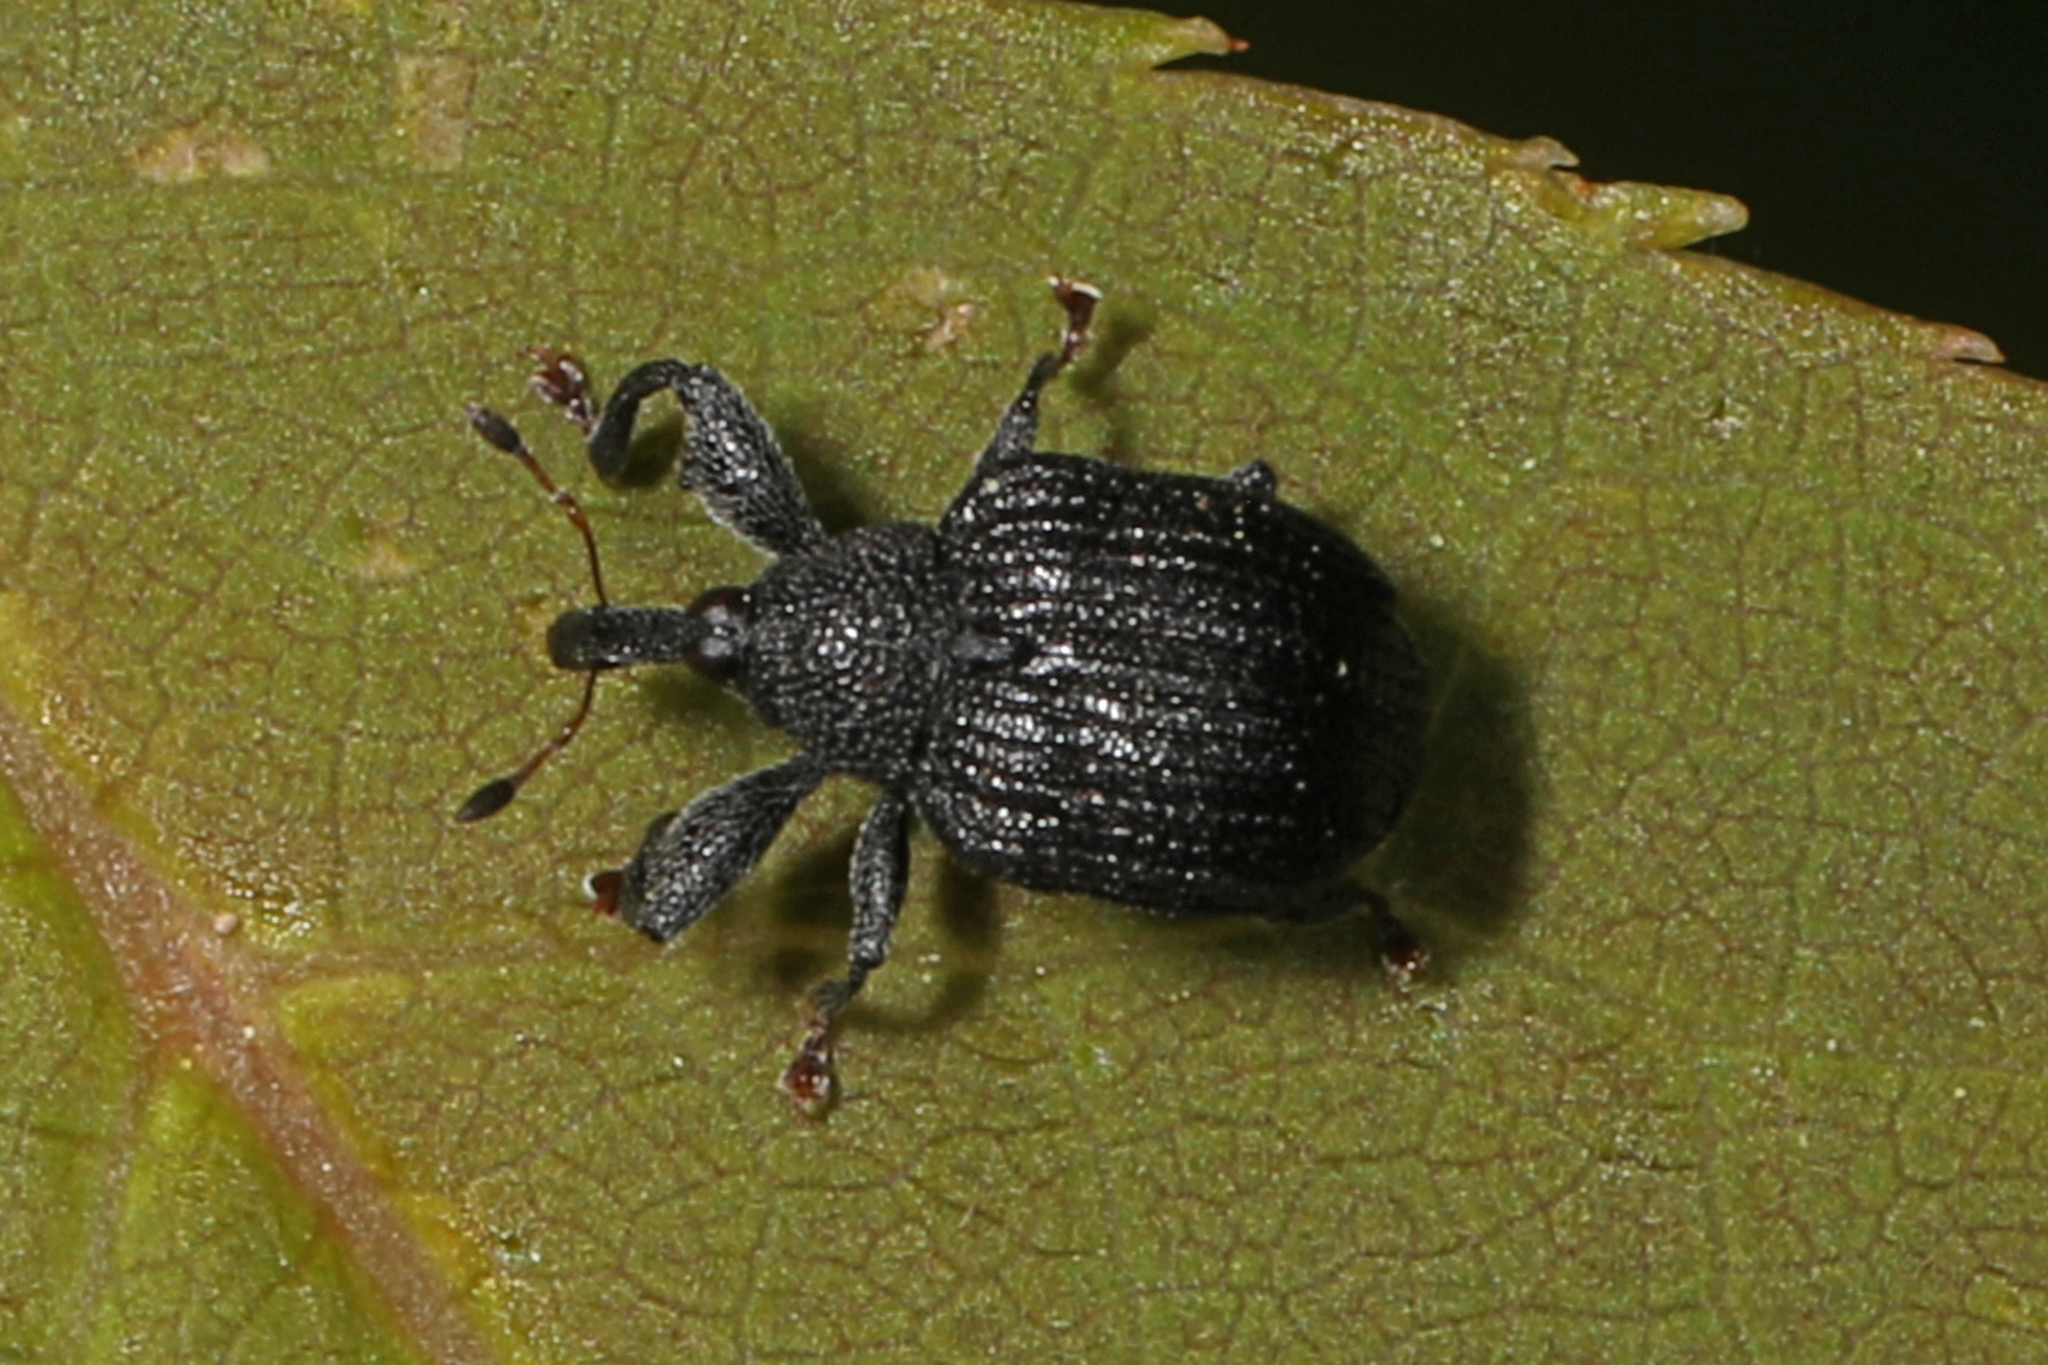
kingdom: Animalia
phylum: Arthropoda
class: Insecta
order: Coleoptera
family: Curculionidae
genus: Odontopus
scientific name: Odontopus calceatus
